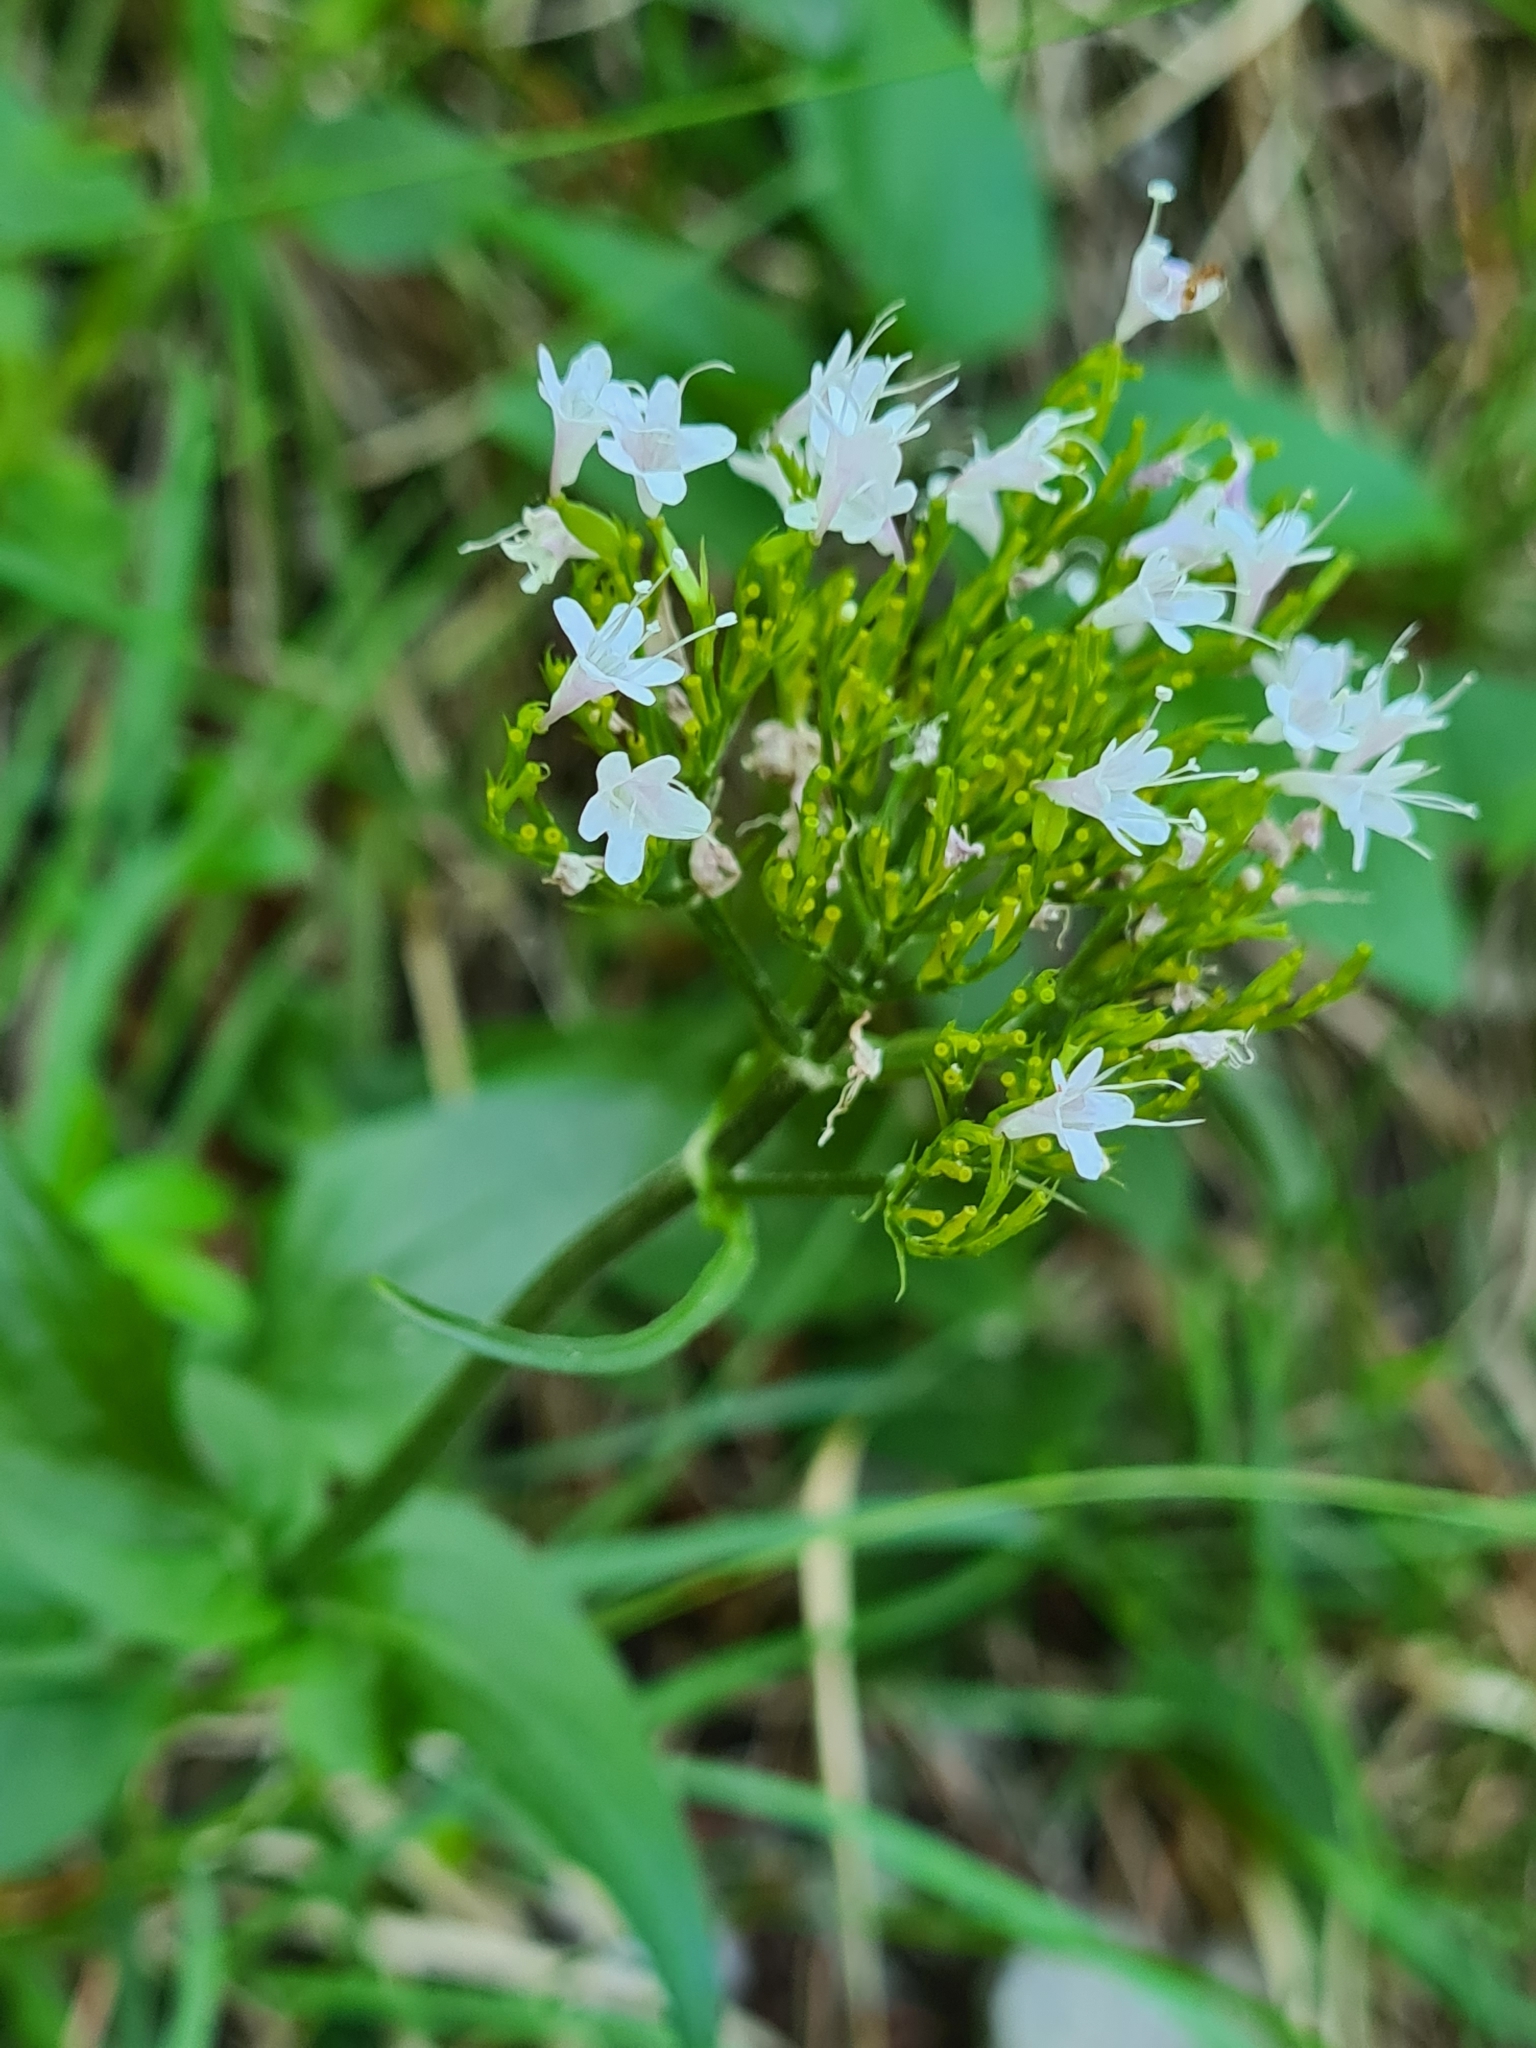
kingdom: Plantae
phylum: Tracheophyta
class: Magnoliopsida
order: Dipsacales
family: Caprifoliaceae
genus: Valeriana
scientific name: Valeriana tripteris
